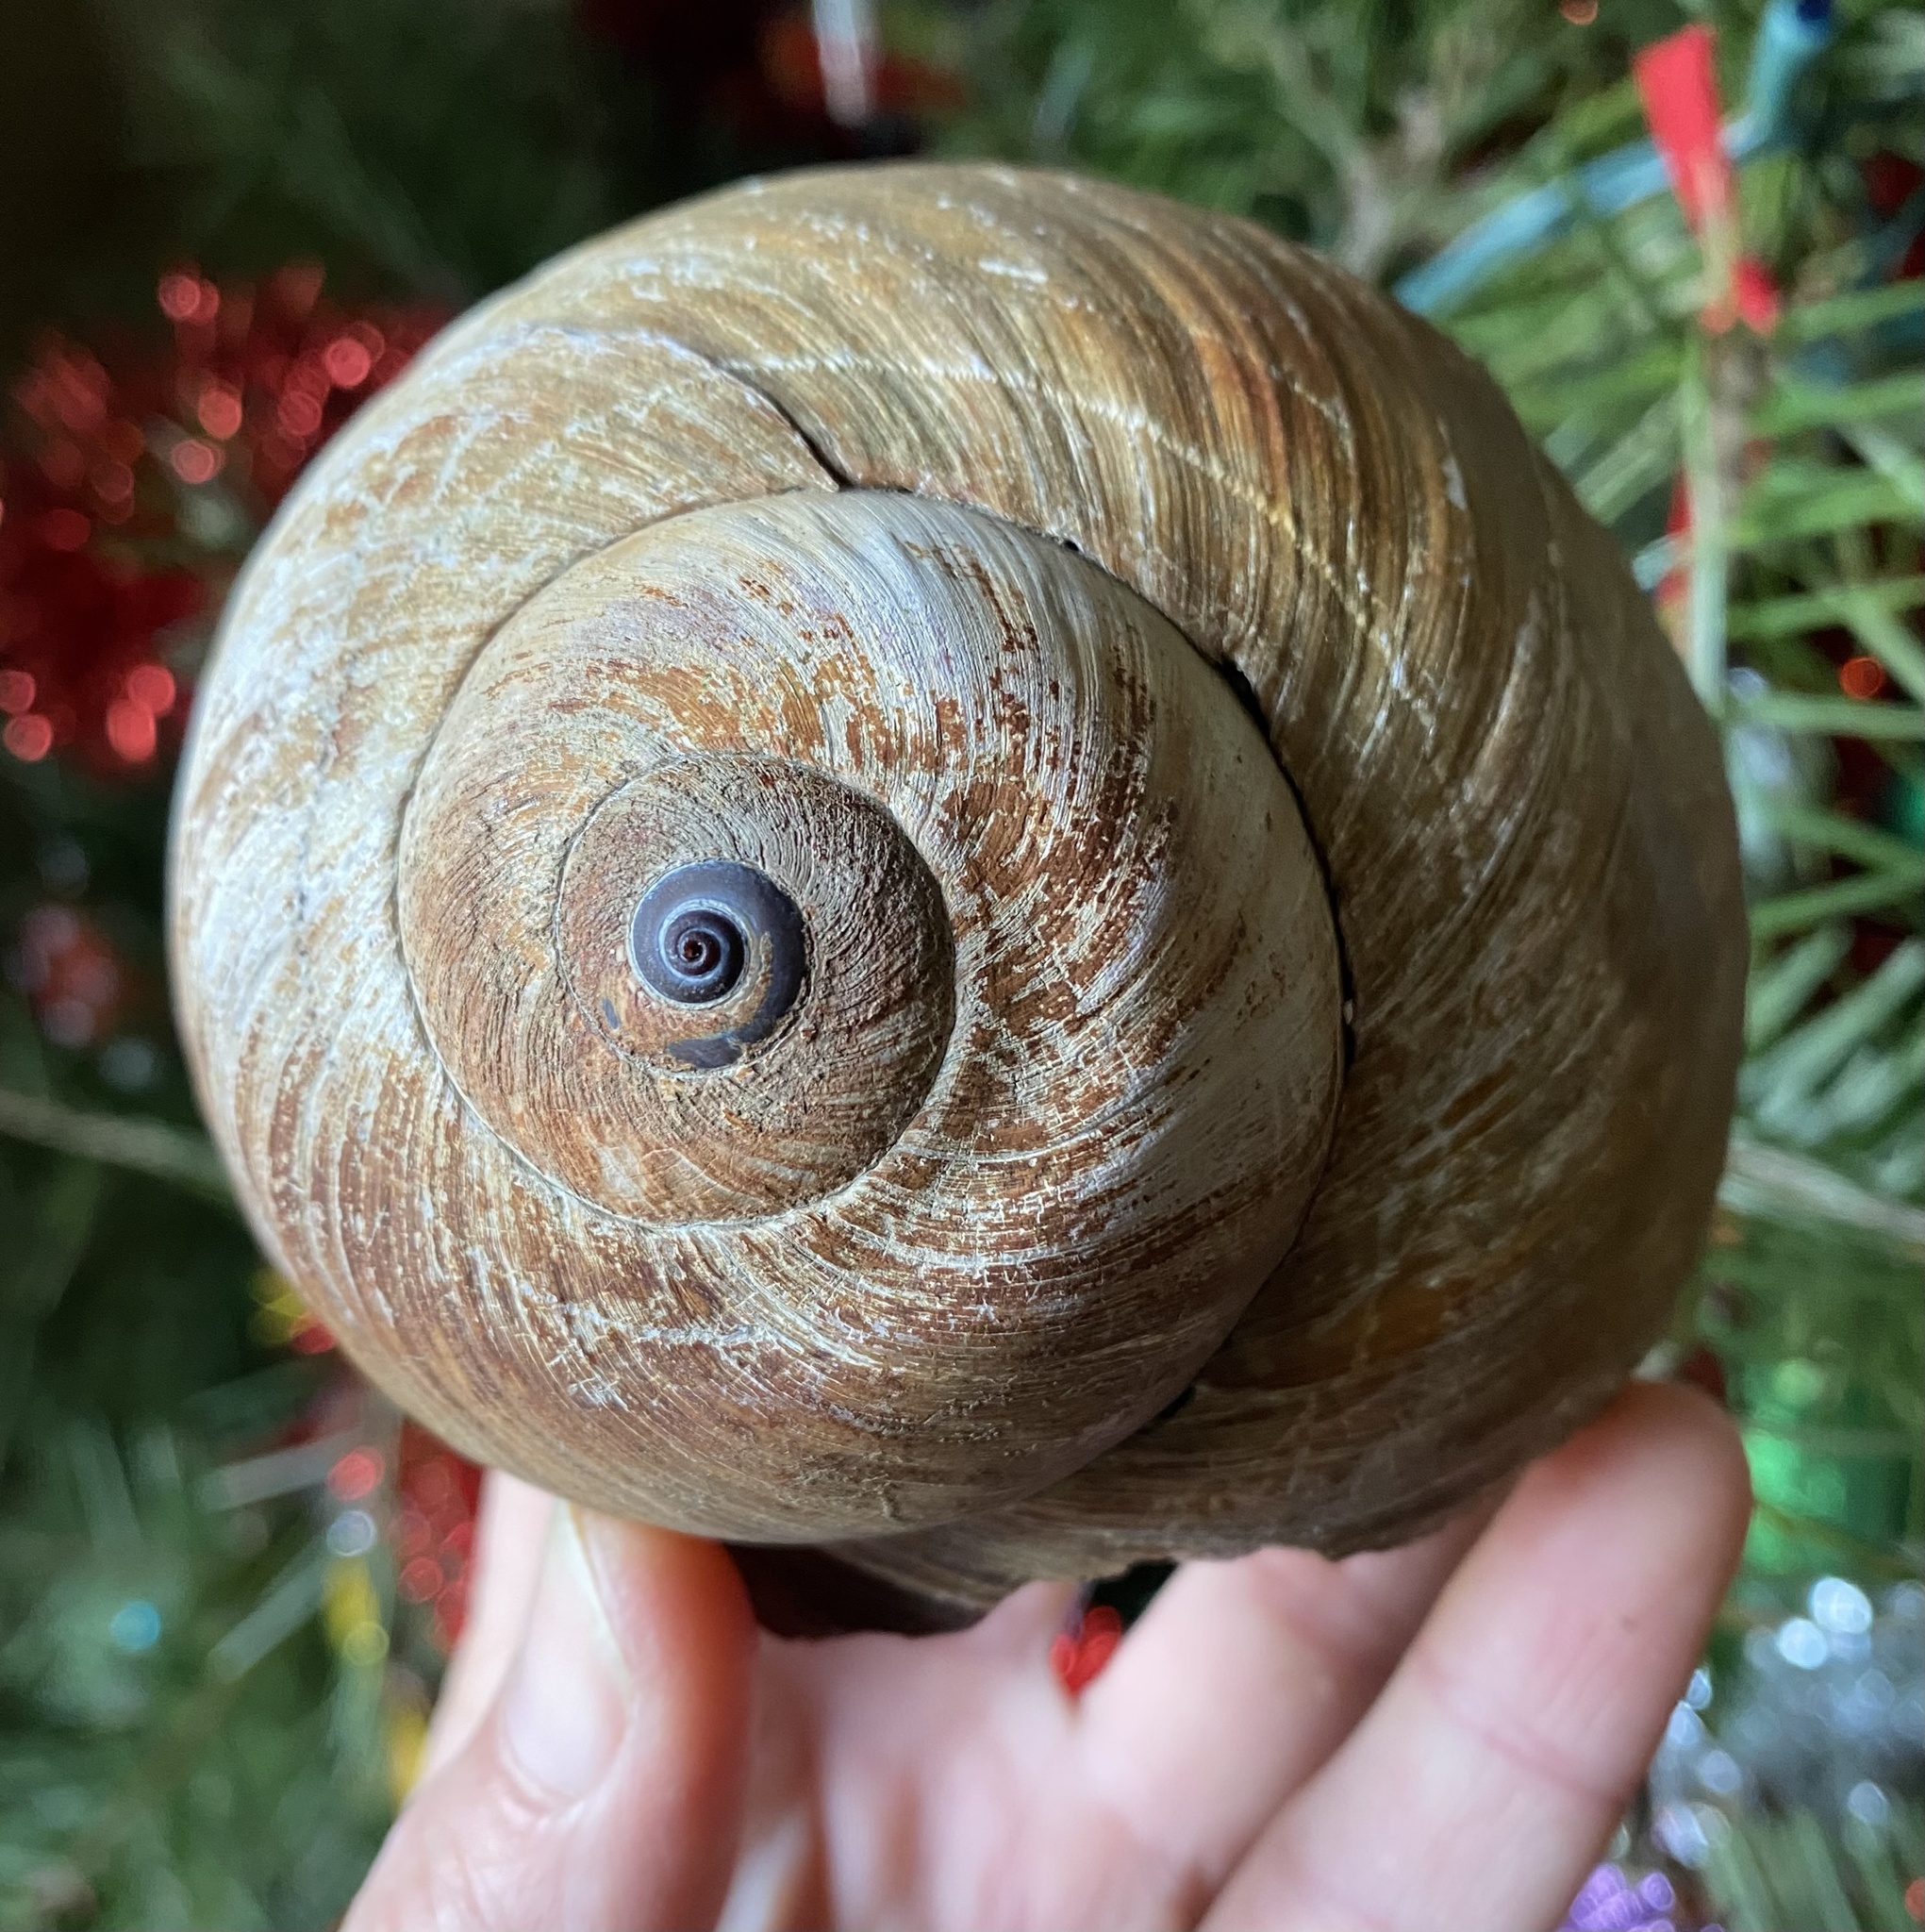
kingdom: Animalia
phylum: Mollusca
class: Gastropoda
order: Littorinimorpha
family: Naticidae
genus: Neverita
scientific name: Neverita lewisii
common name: Lewis' moonsnail
